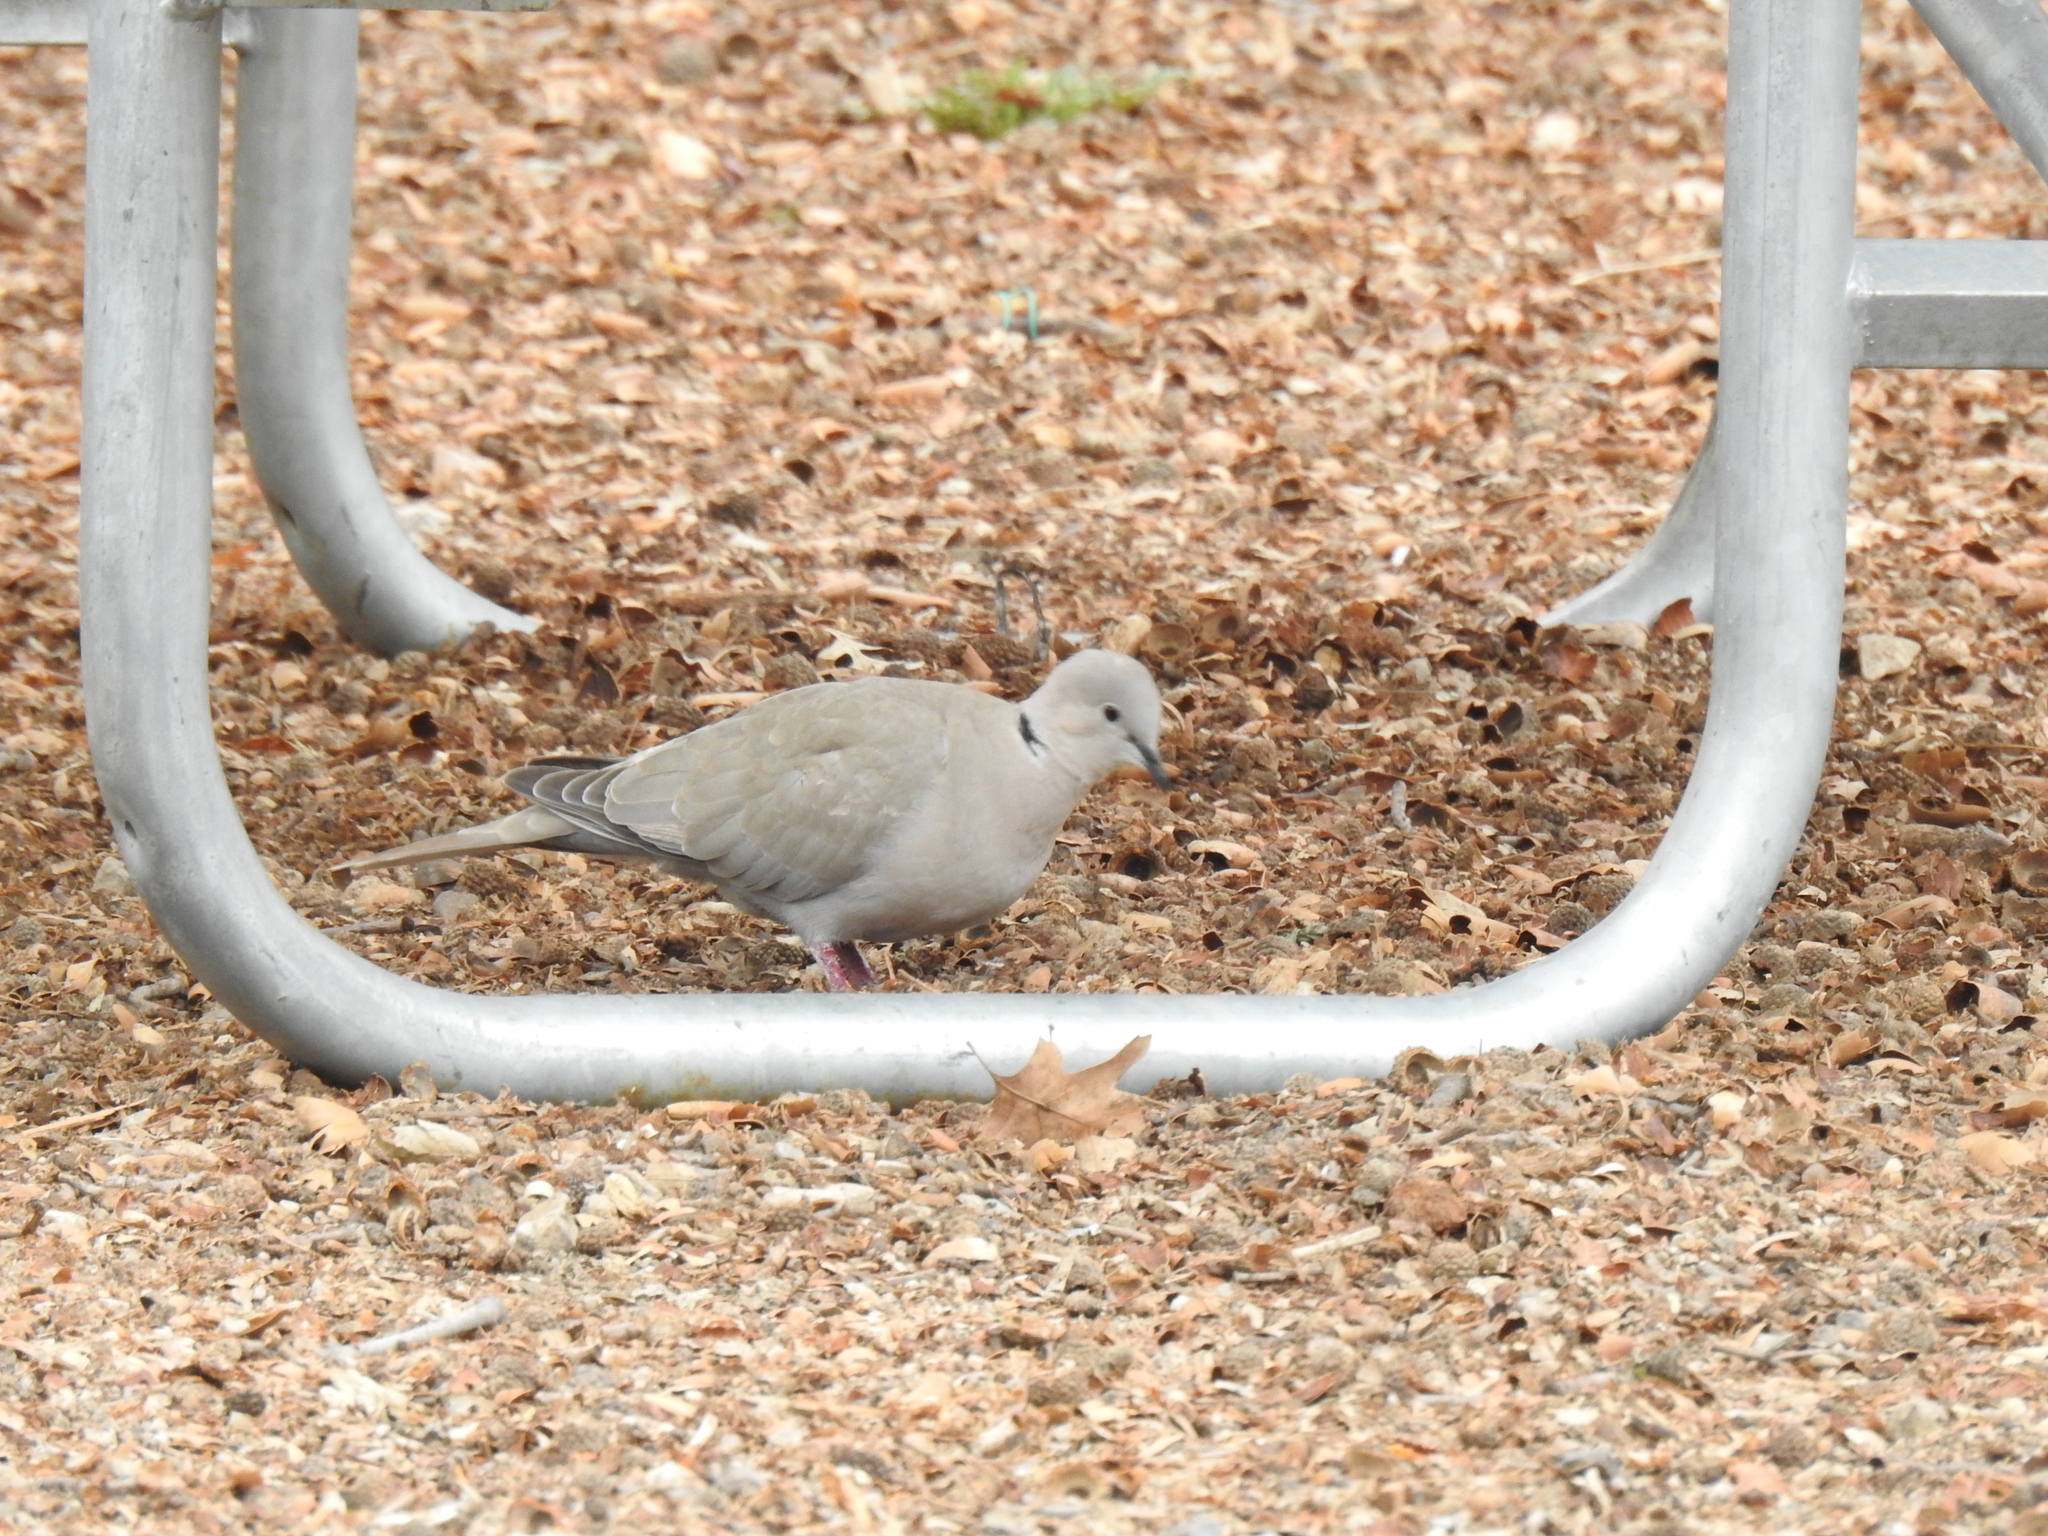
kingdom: Animalia
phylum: Chordata
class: Aves
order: Columbiformes
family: Columbidae
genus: Streptopelia
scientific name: Streptopelia decaocto
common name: Eurasian collared dove
